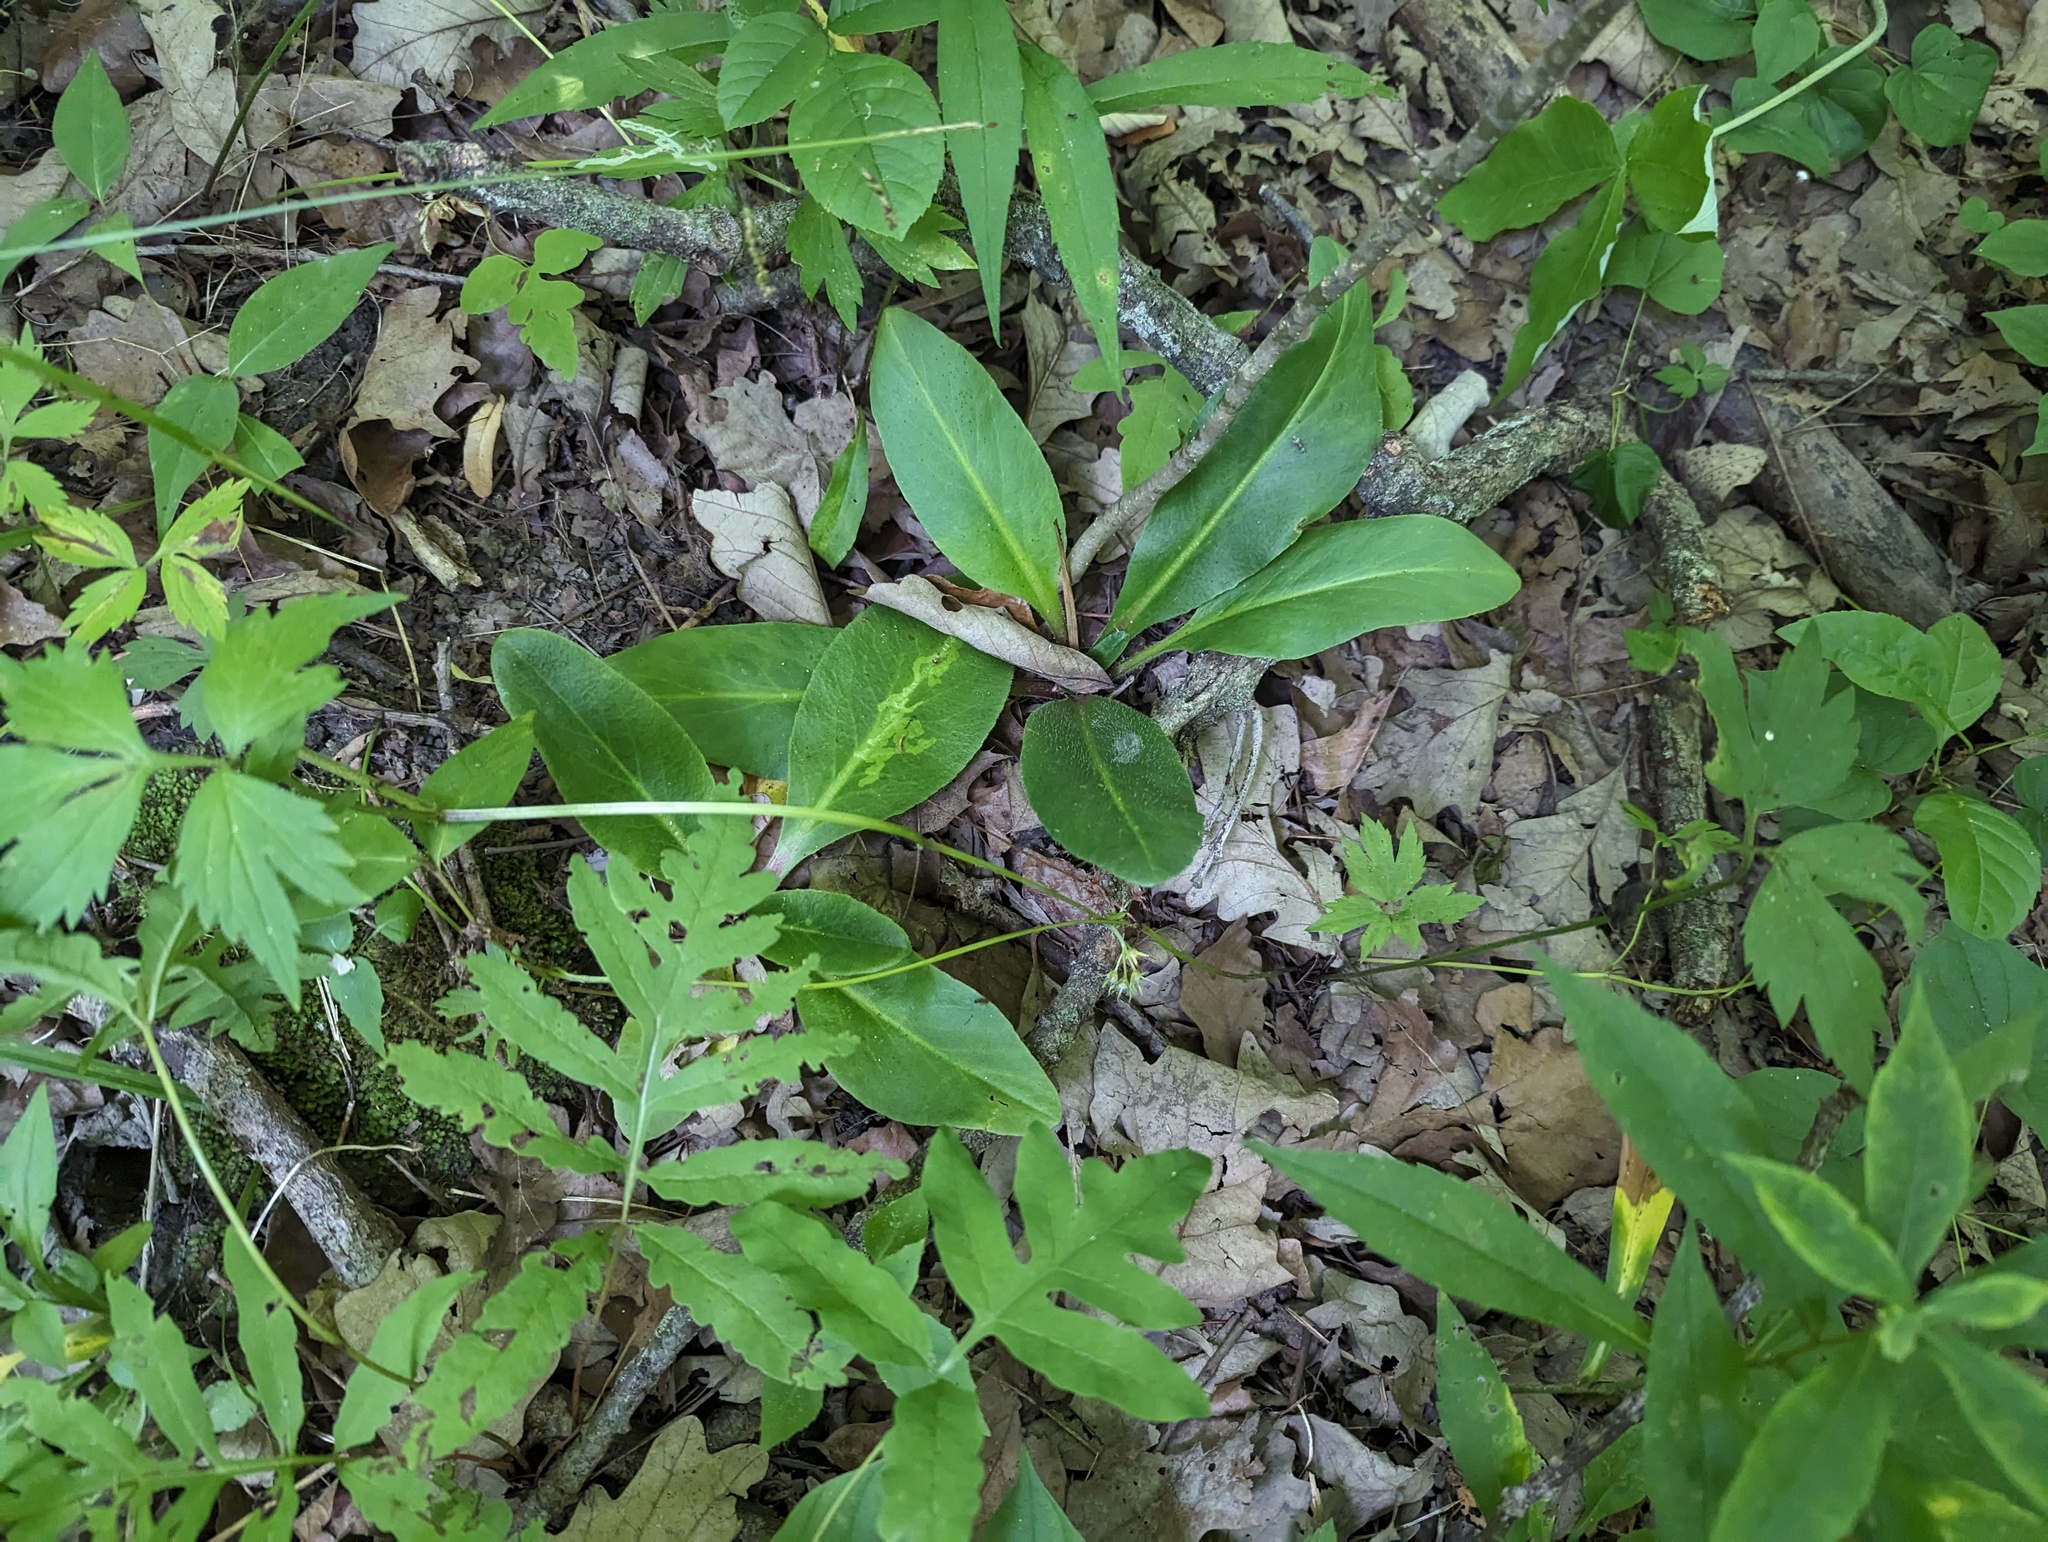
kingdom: Plantae
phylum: Tracheophyta
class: Magnoliopsida
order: Saxifragales
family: Saxifragaceae
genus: Micranthes
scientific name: Micranthes pensylvanica
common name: Marsh saxifrage
